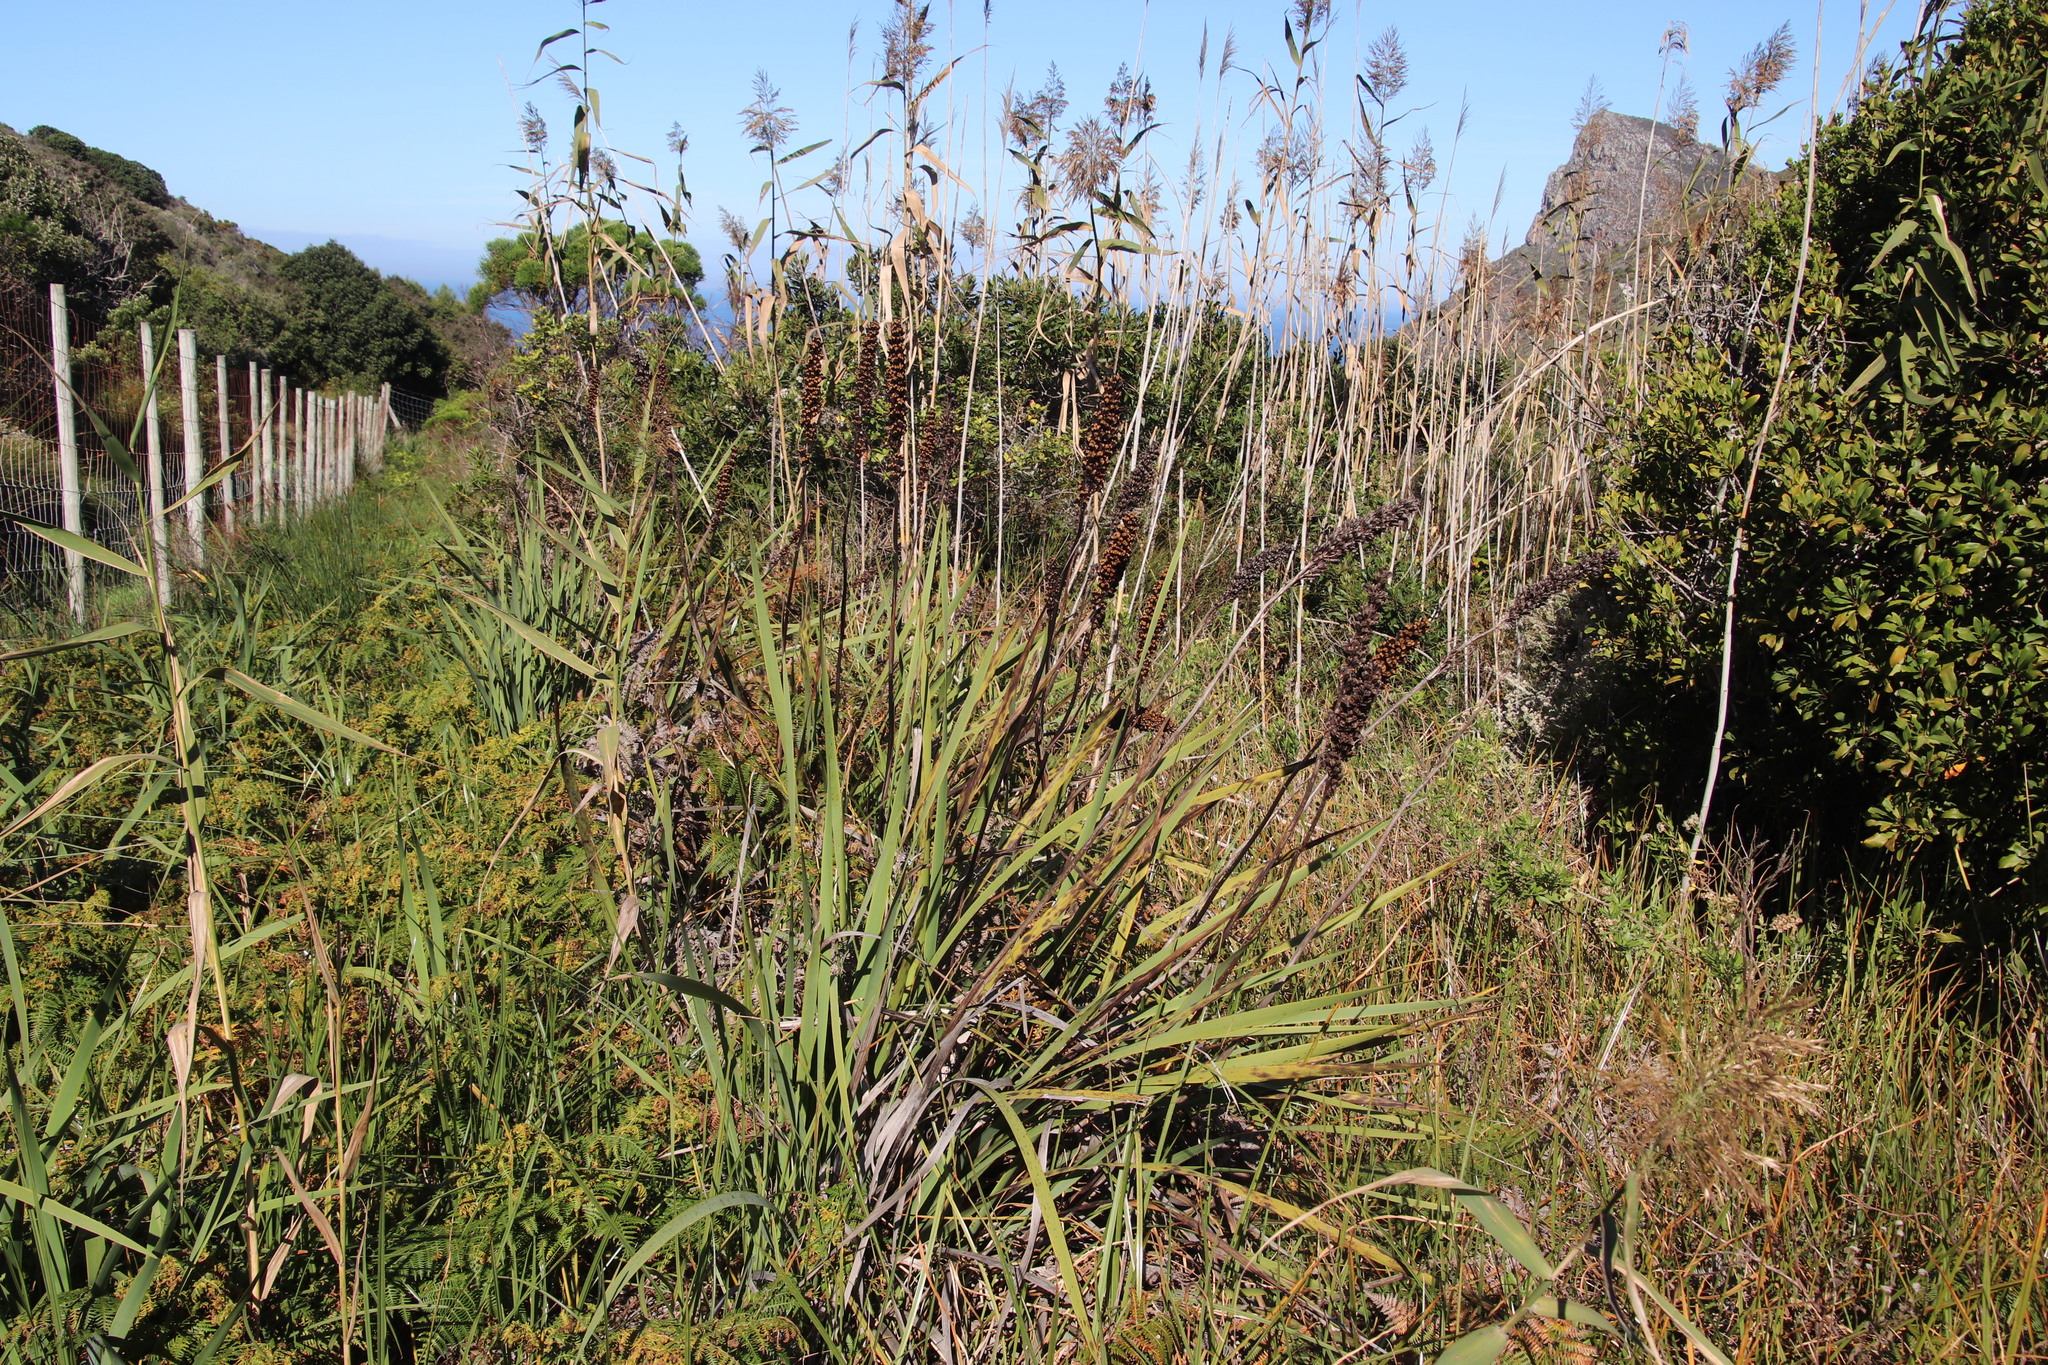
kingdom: Plantae
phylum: Tracheophyta
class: Liliopsida
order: Asparagales
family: Iridaceae
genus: Aristea
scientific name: Aristea capitata
